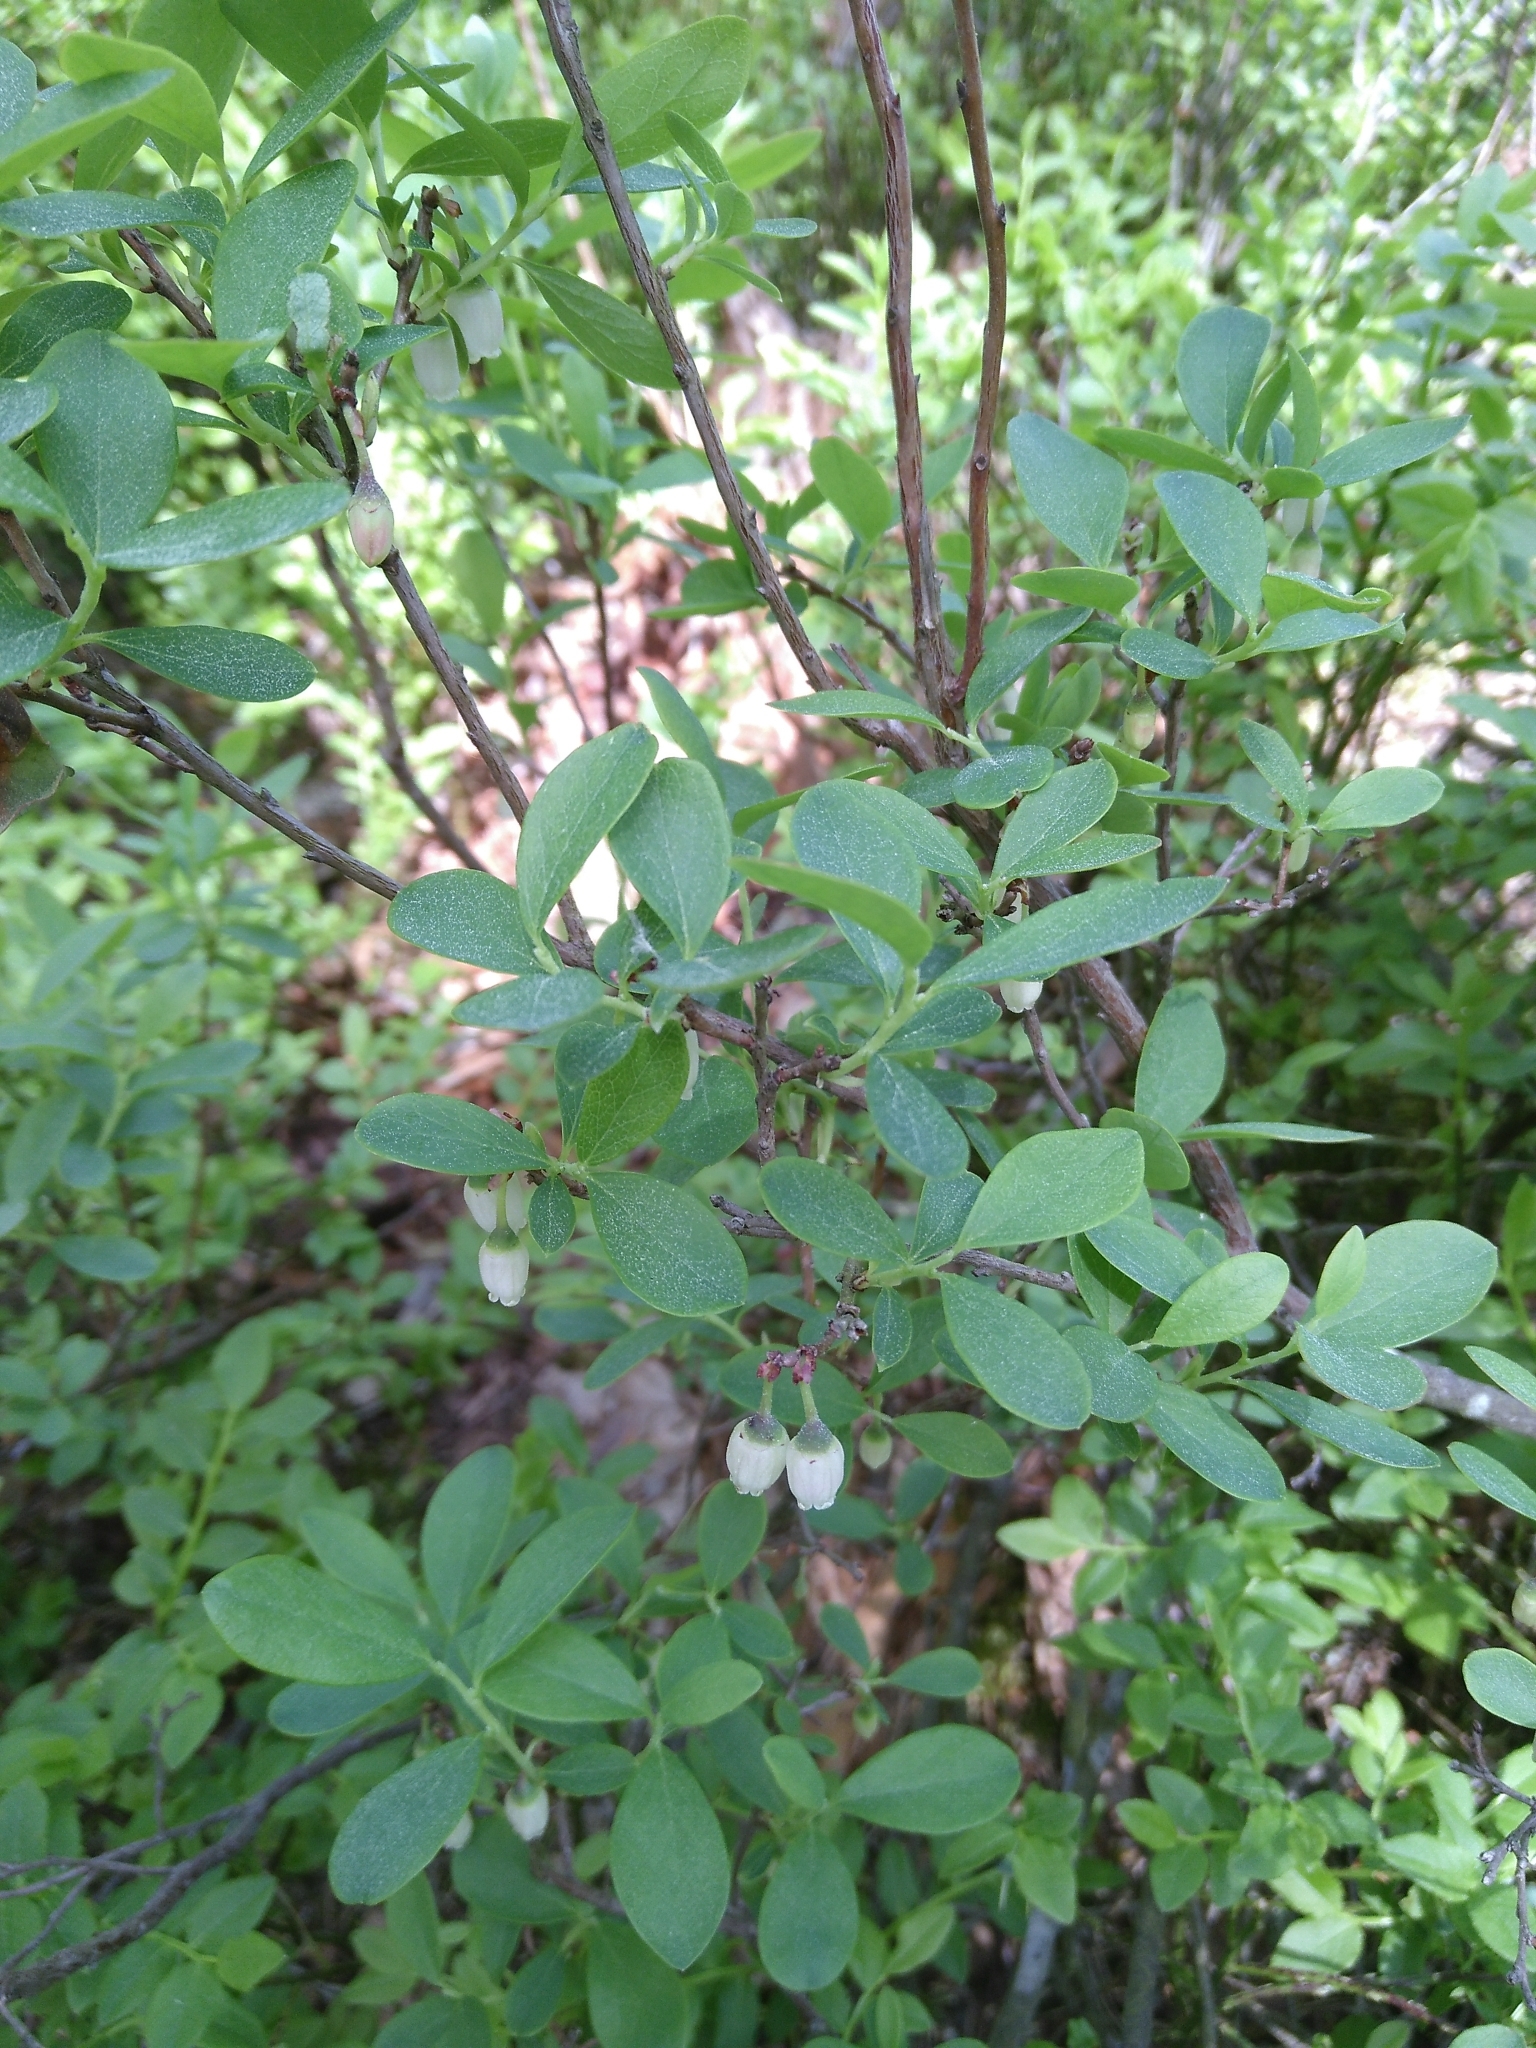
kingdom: Plantae
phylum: Tracheophyta
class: Magnoliopsida
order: Ericales
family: Ericaceae
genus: Vaccinium
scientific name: Vaccinium uliginosum
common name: Bog bilberry
